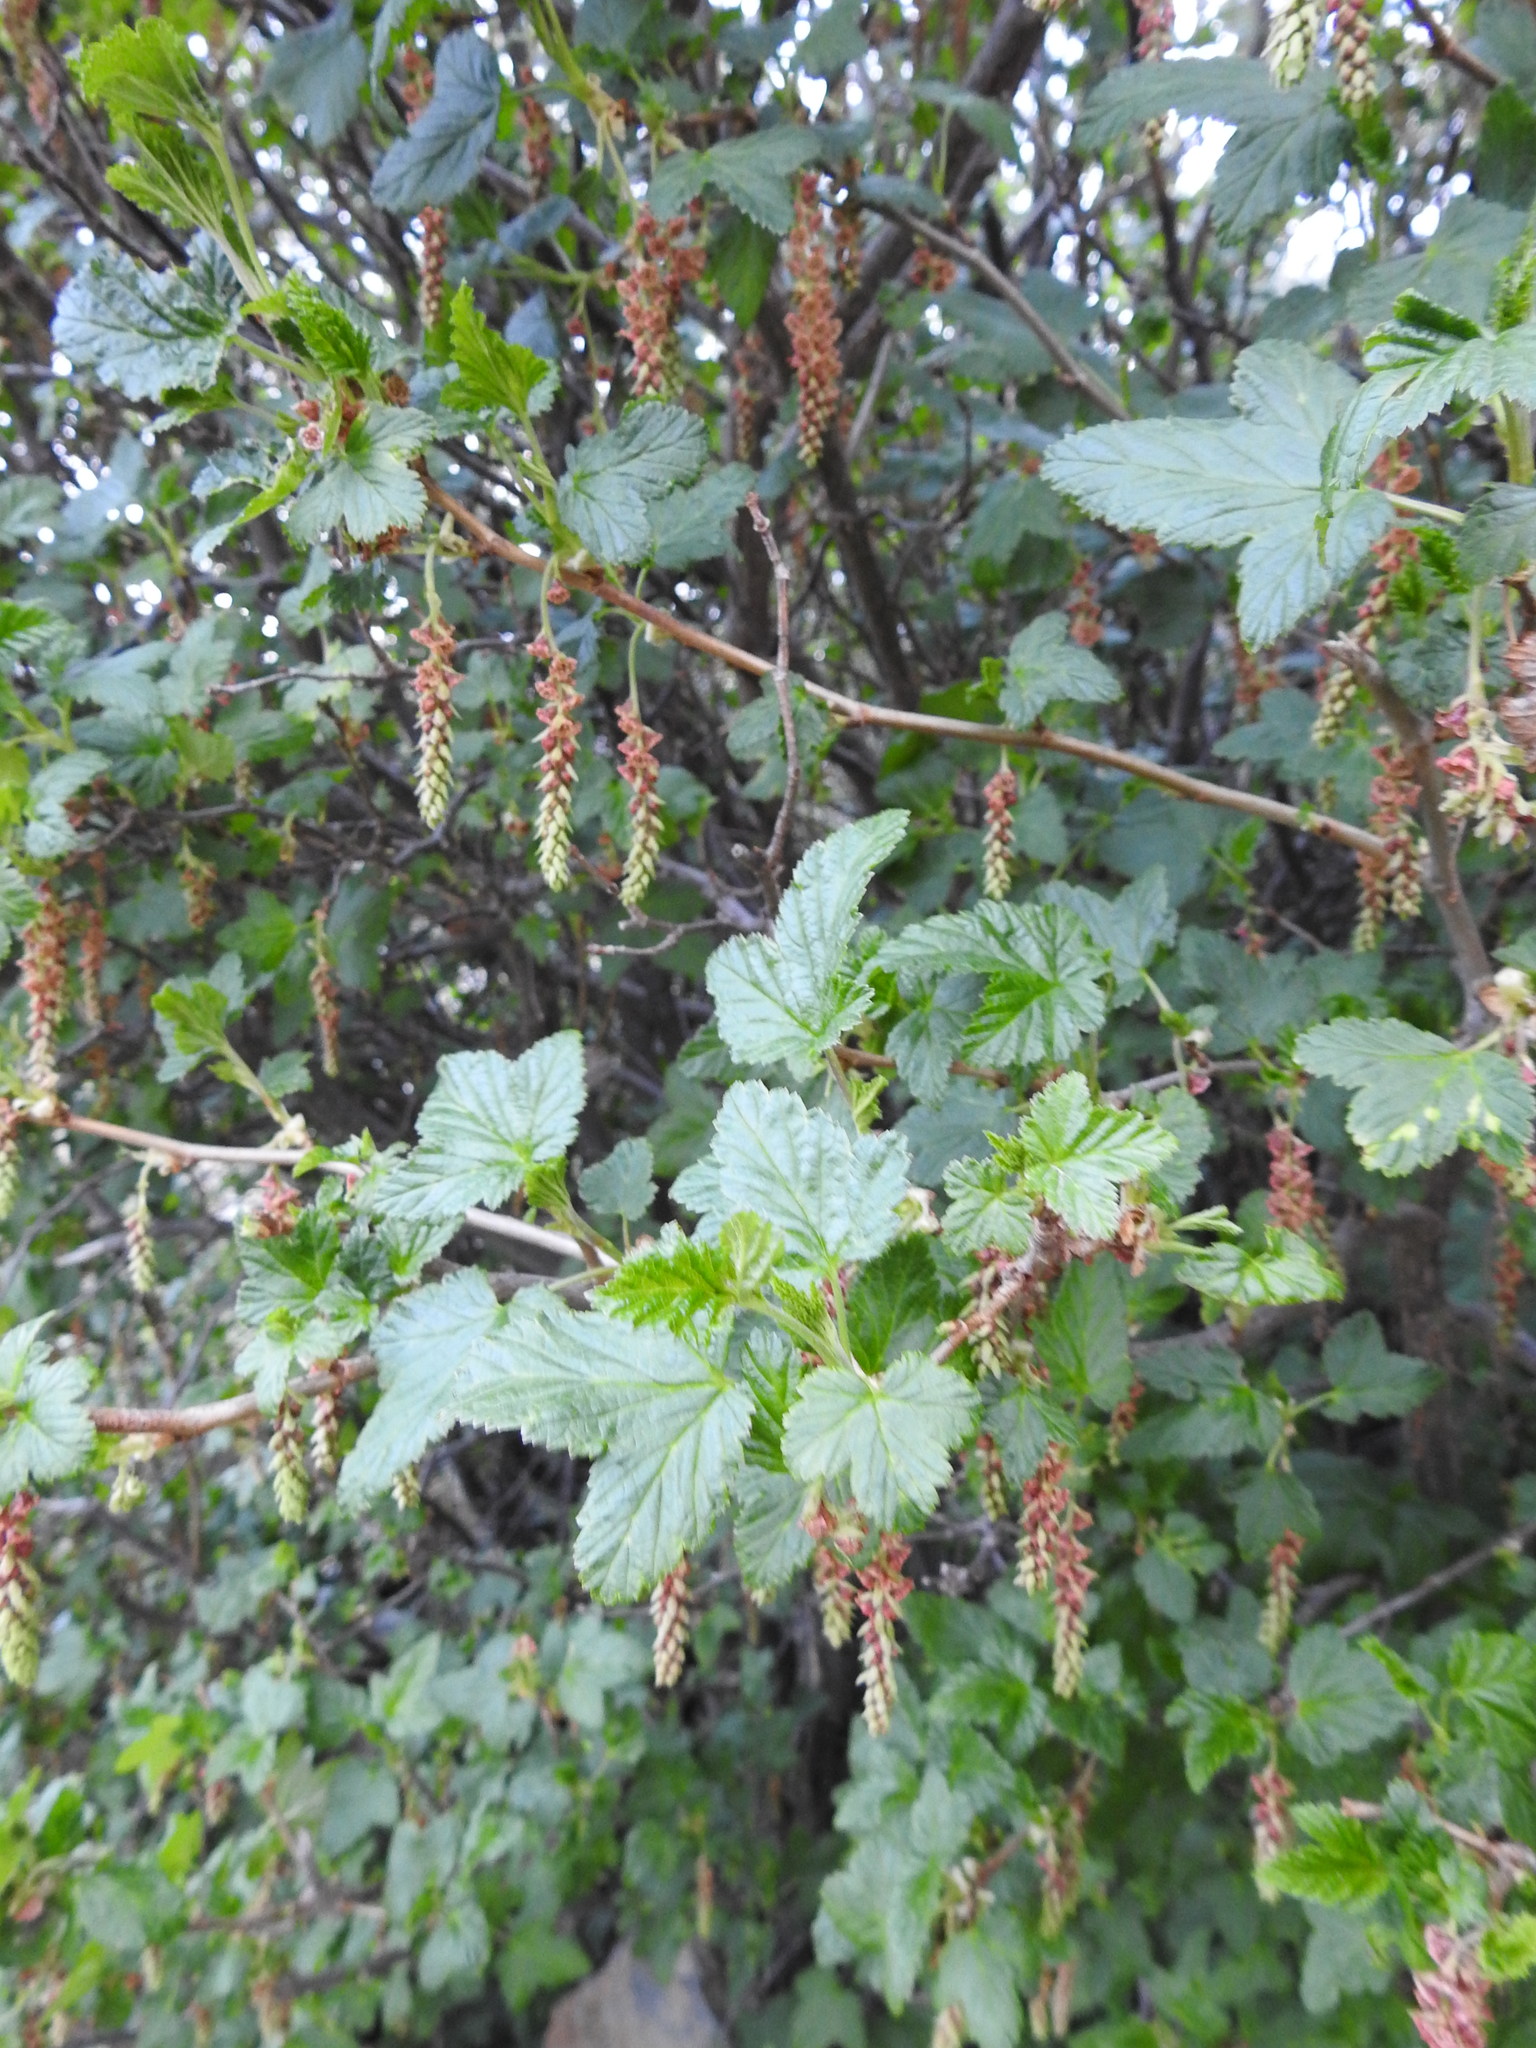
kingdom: Plantae
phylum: Tracheophyta
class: Magnoliopsida
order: Saxifragales
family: Grossulariaceae
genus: Ribes
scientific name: Ribes magellanicum
